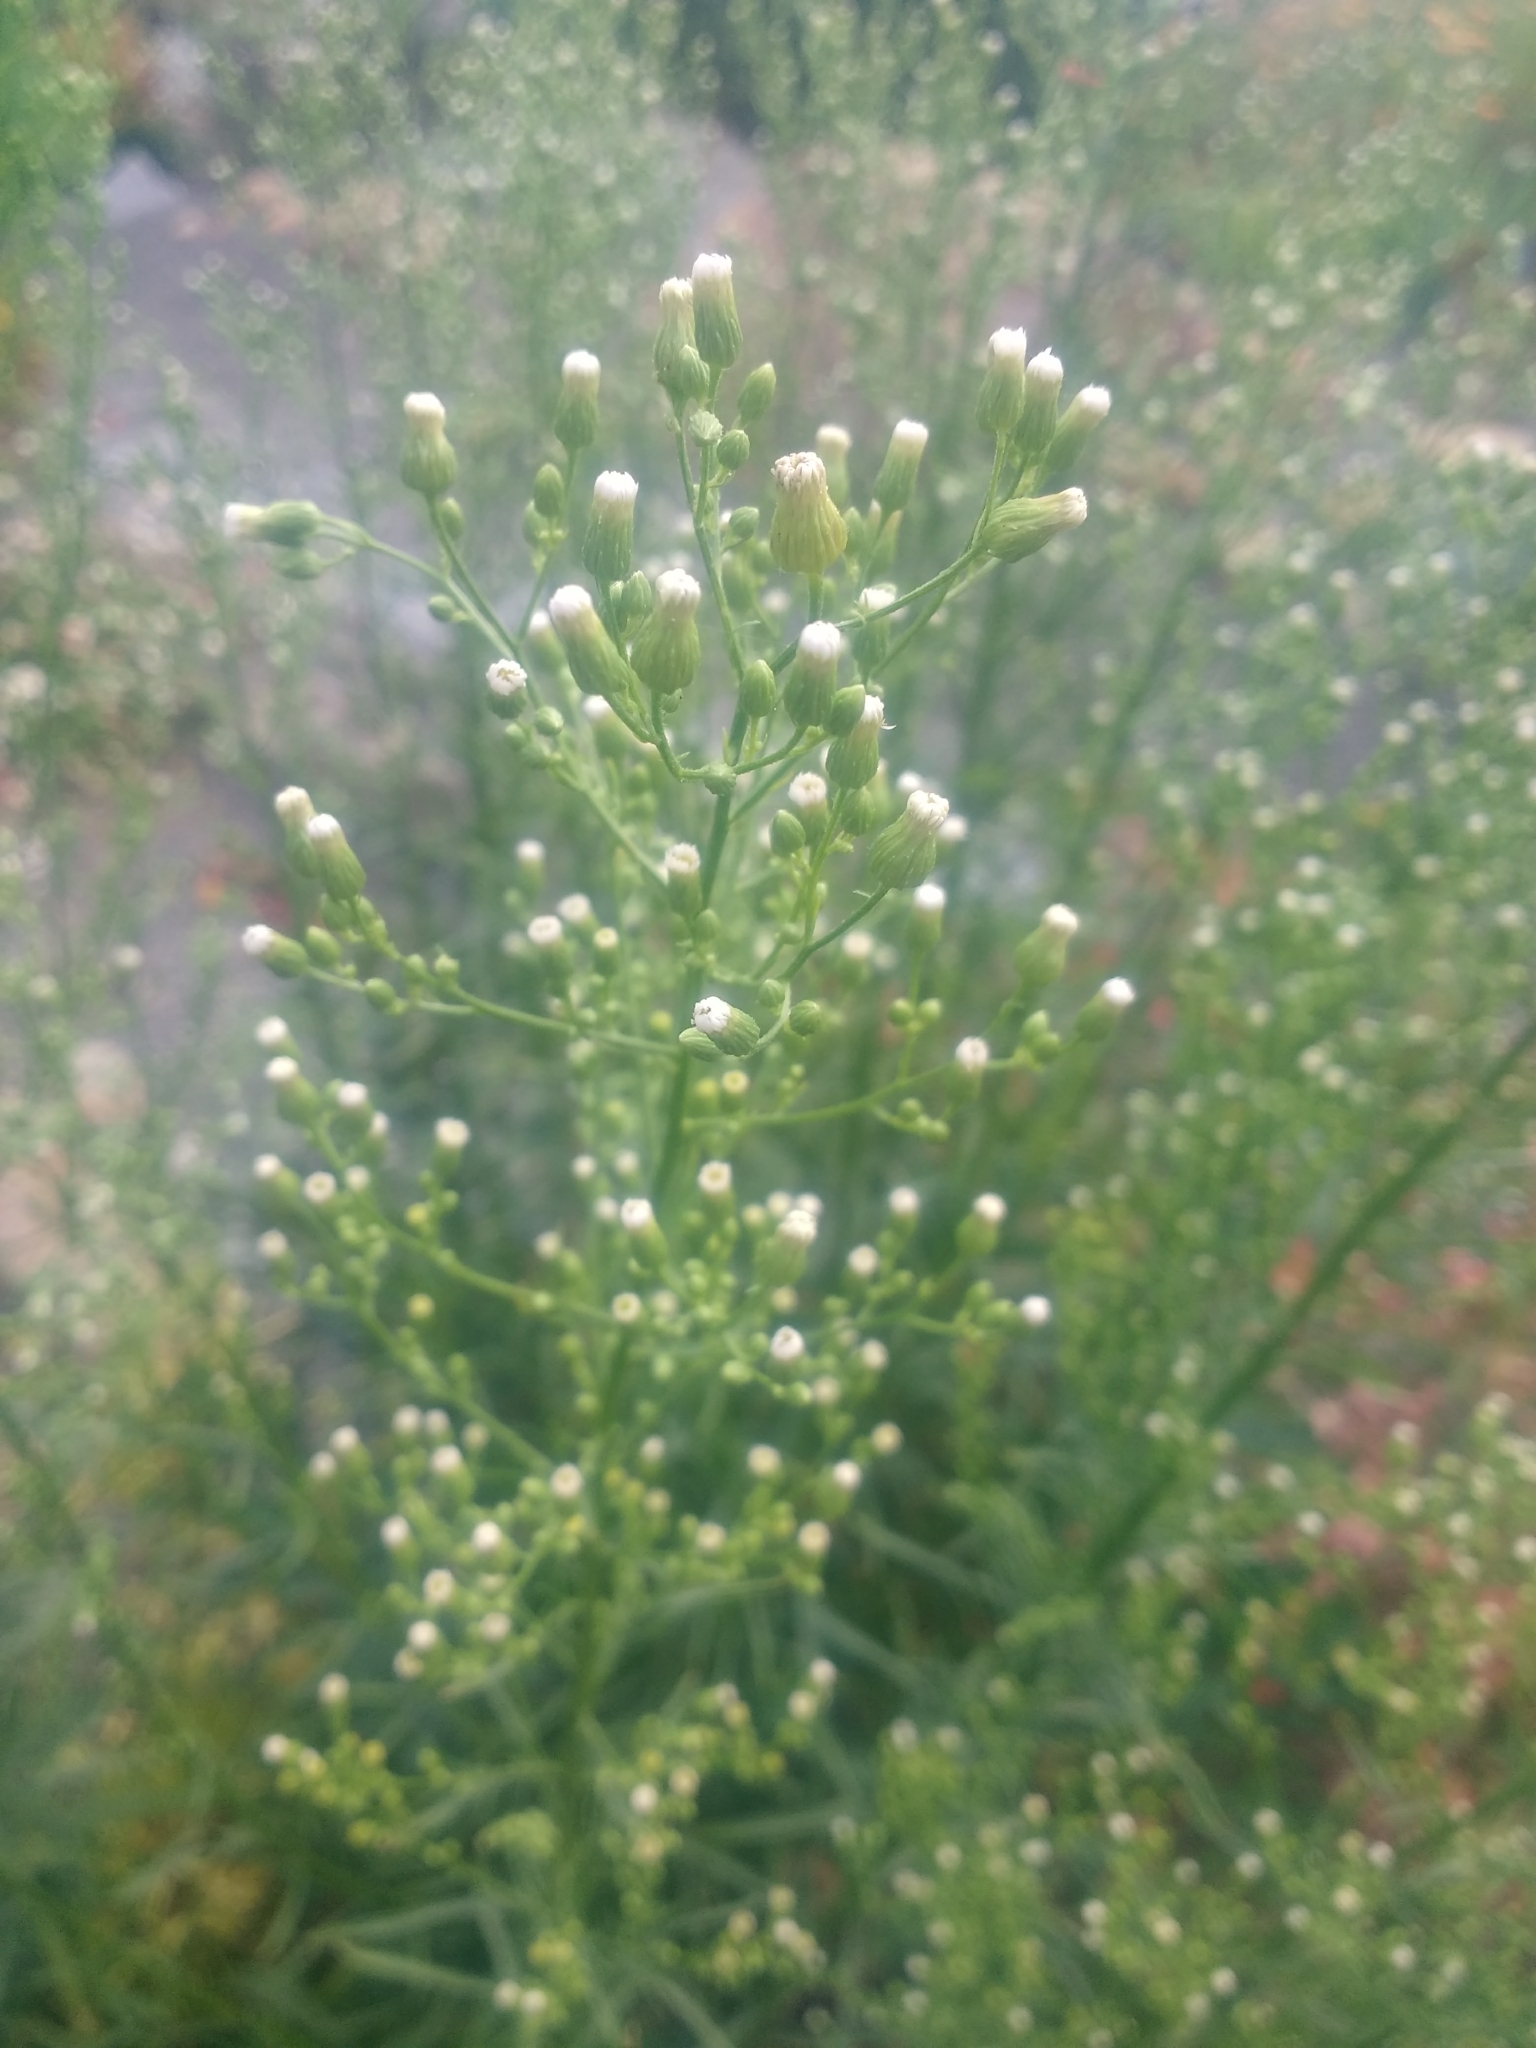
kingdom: Plantae
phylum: Tracheophyta
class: Magnoliopsida
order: Asterales
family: Asteraceae
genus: Erigeron
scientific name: Erigeron canadensis
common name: Canadian fleabane
